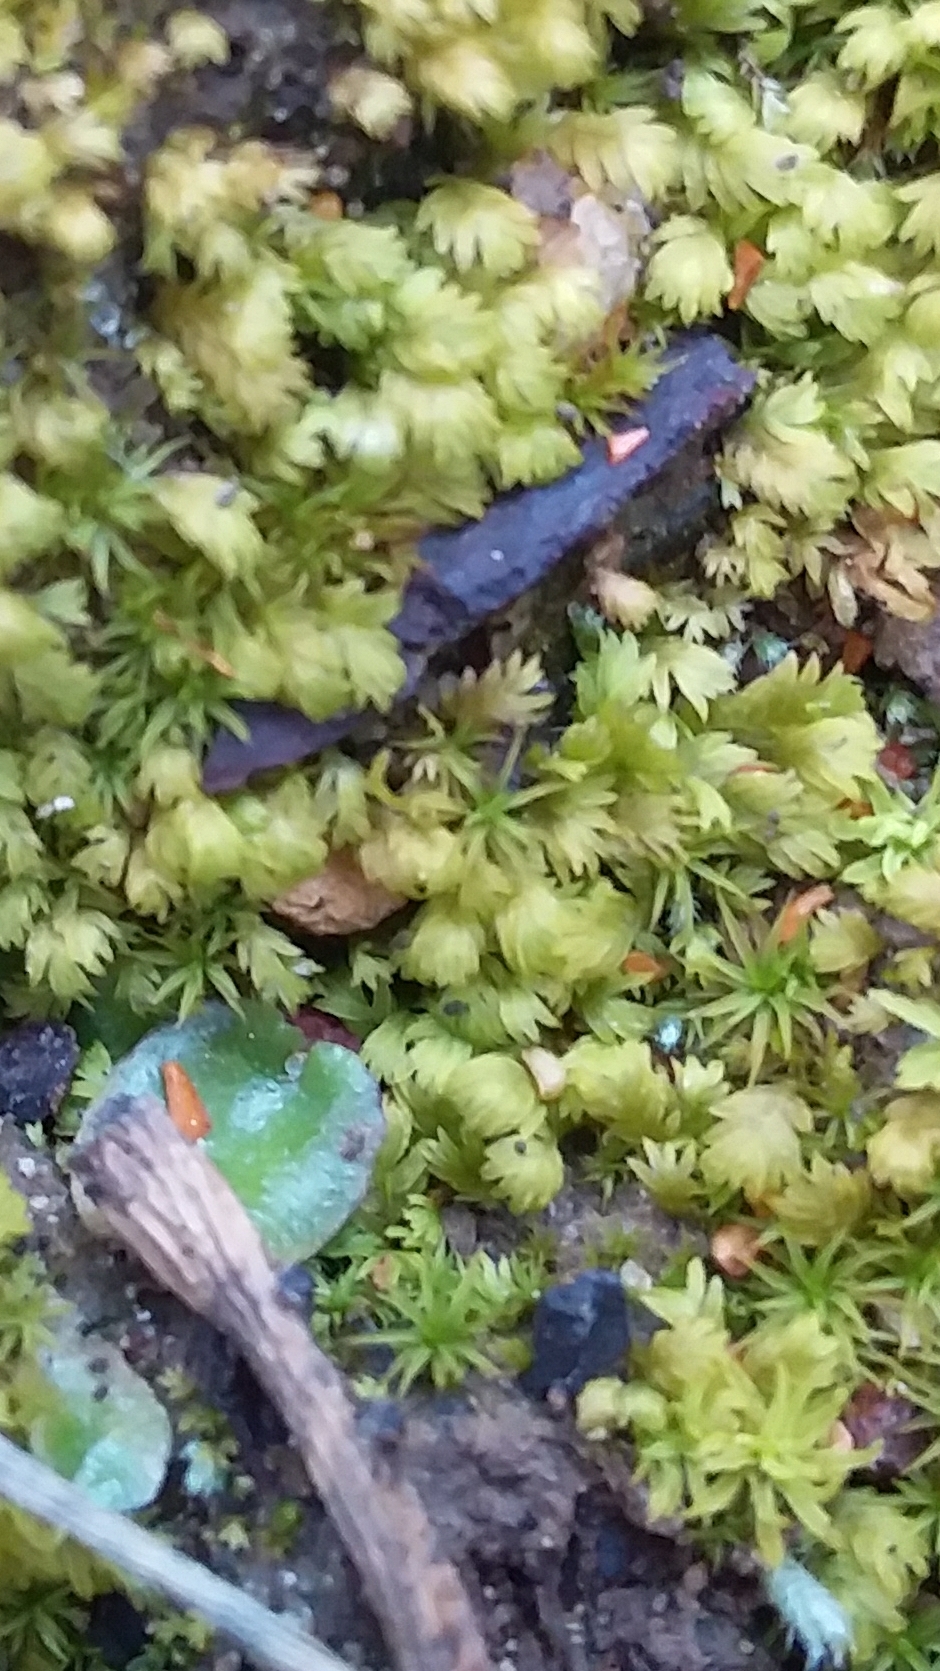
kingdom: Plantae
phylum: Bryophyta
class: Bryopsida
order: Dicranales
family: Fissidentaceae
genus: Fissidens
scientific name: Fissidens megalotis
